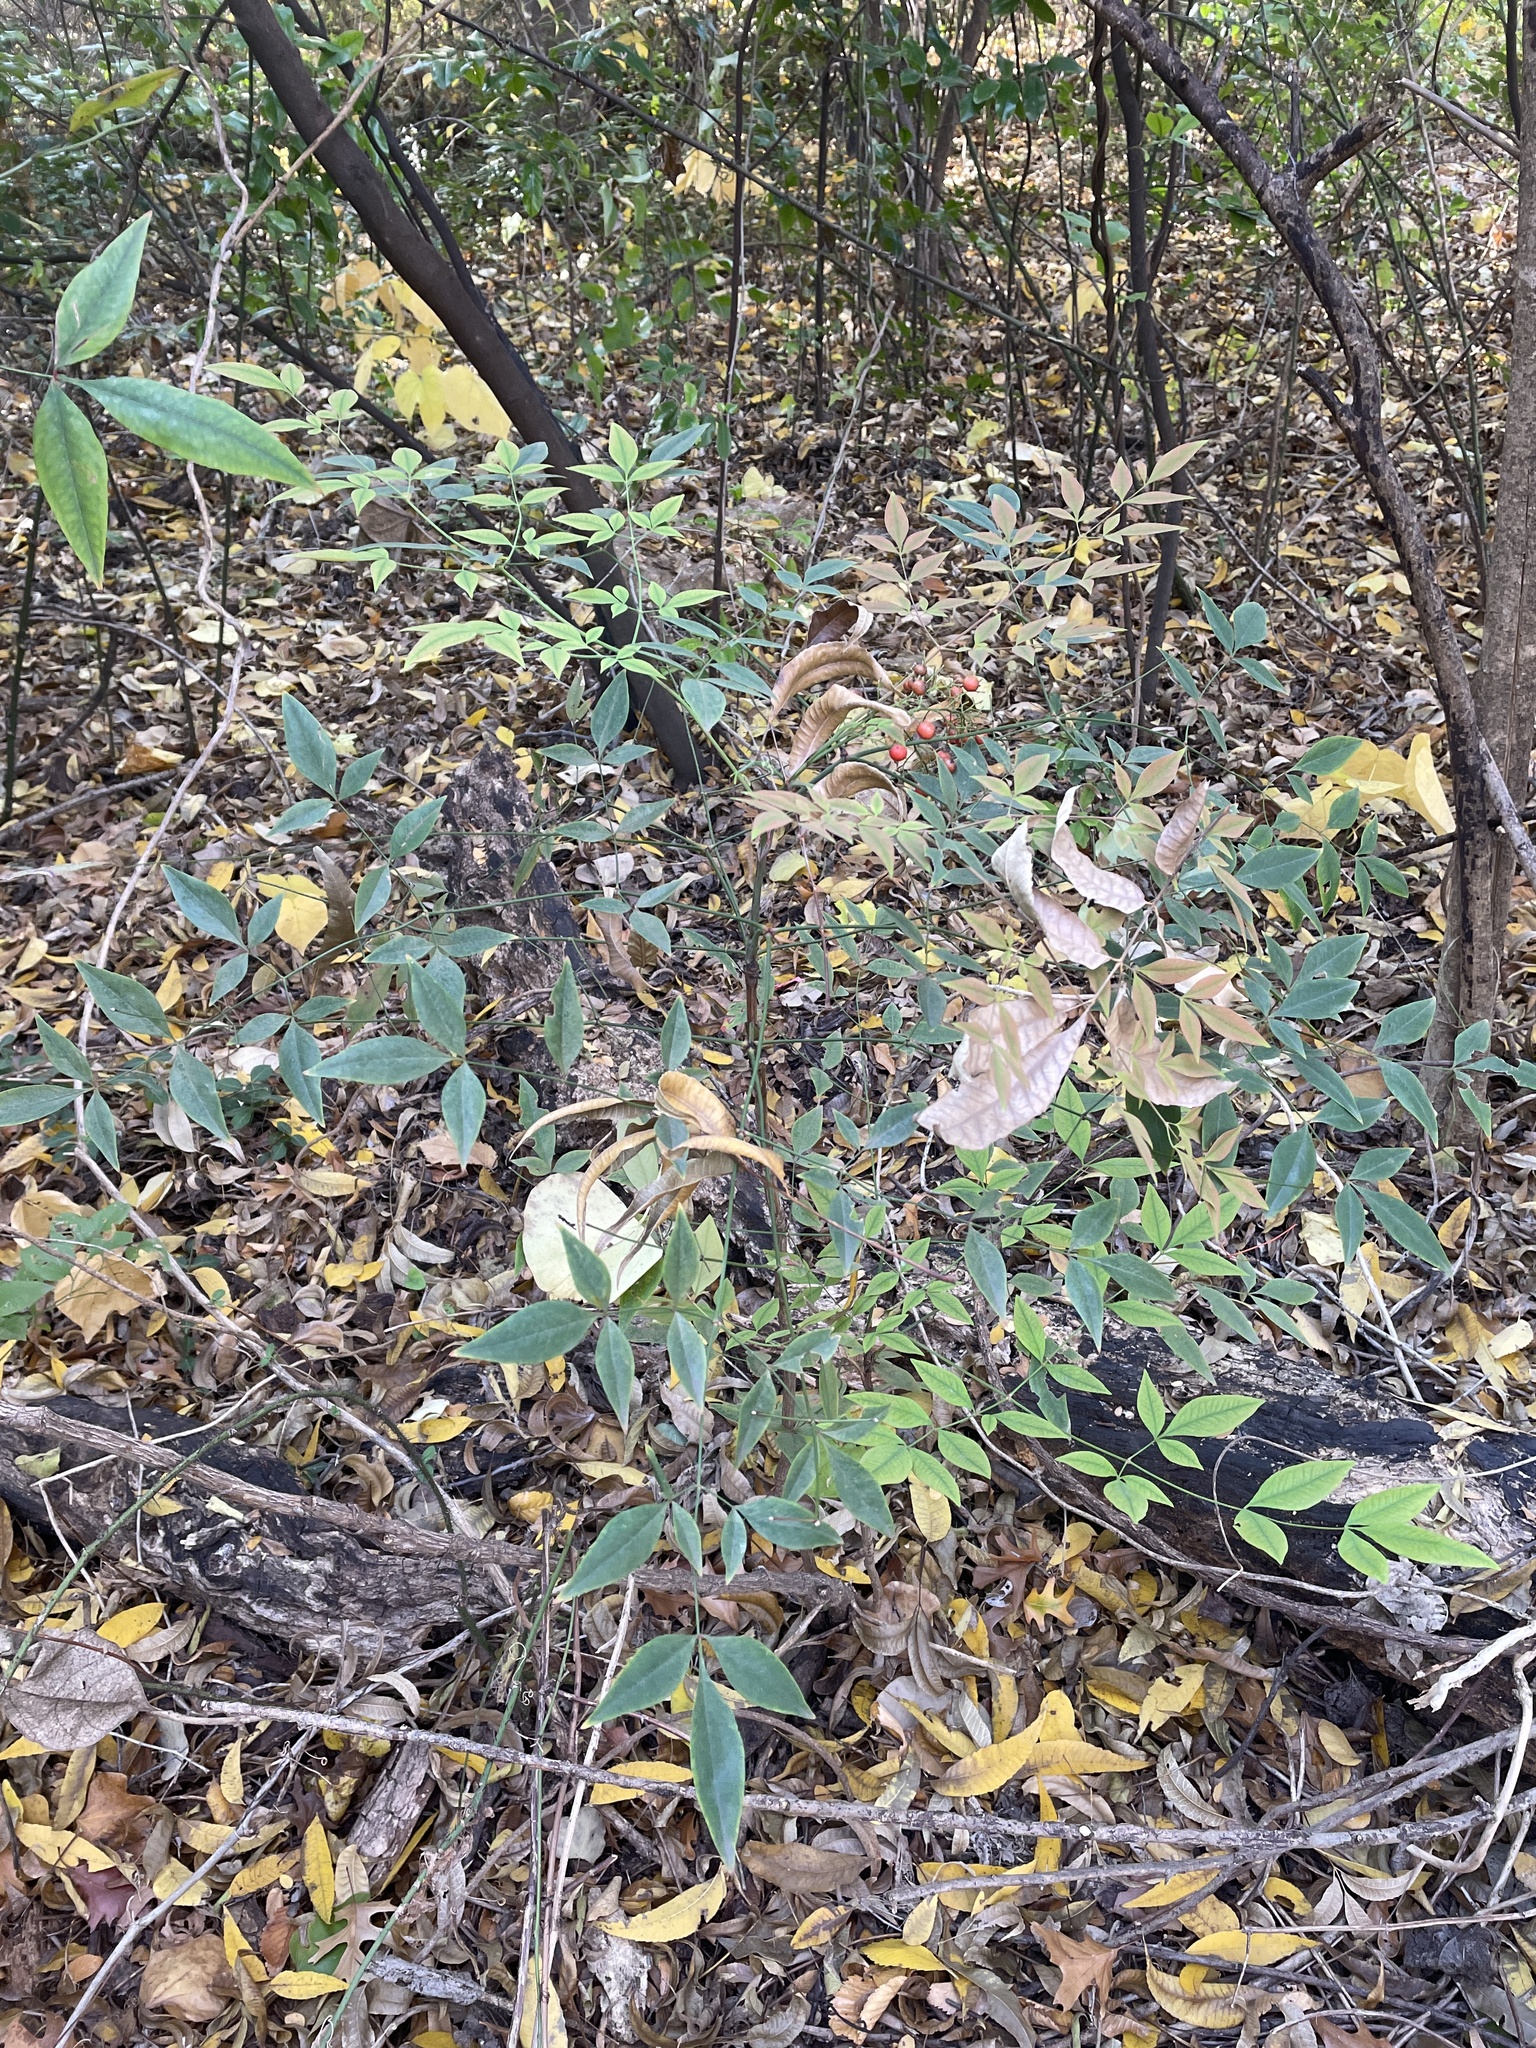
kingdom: Plantae
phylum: Tracheophyta
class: Magnoliopsida
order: Ranunculales
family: Berberidaceae
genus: Nandina
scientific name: Nandina domestica
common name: Sacred bamboo
